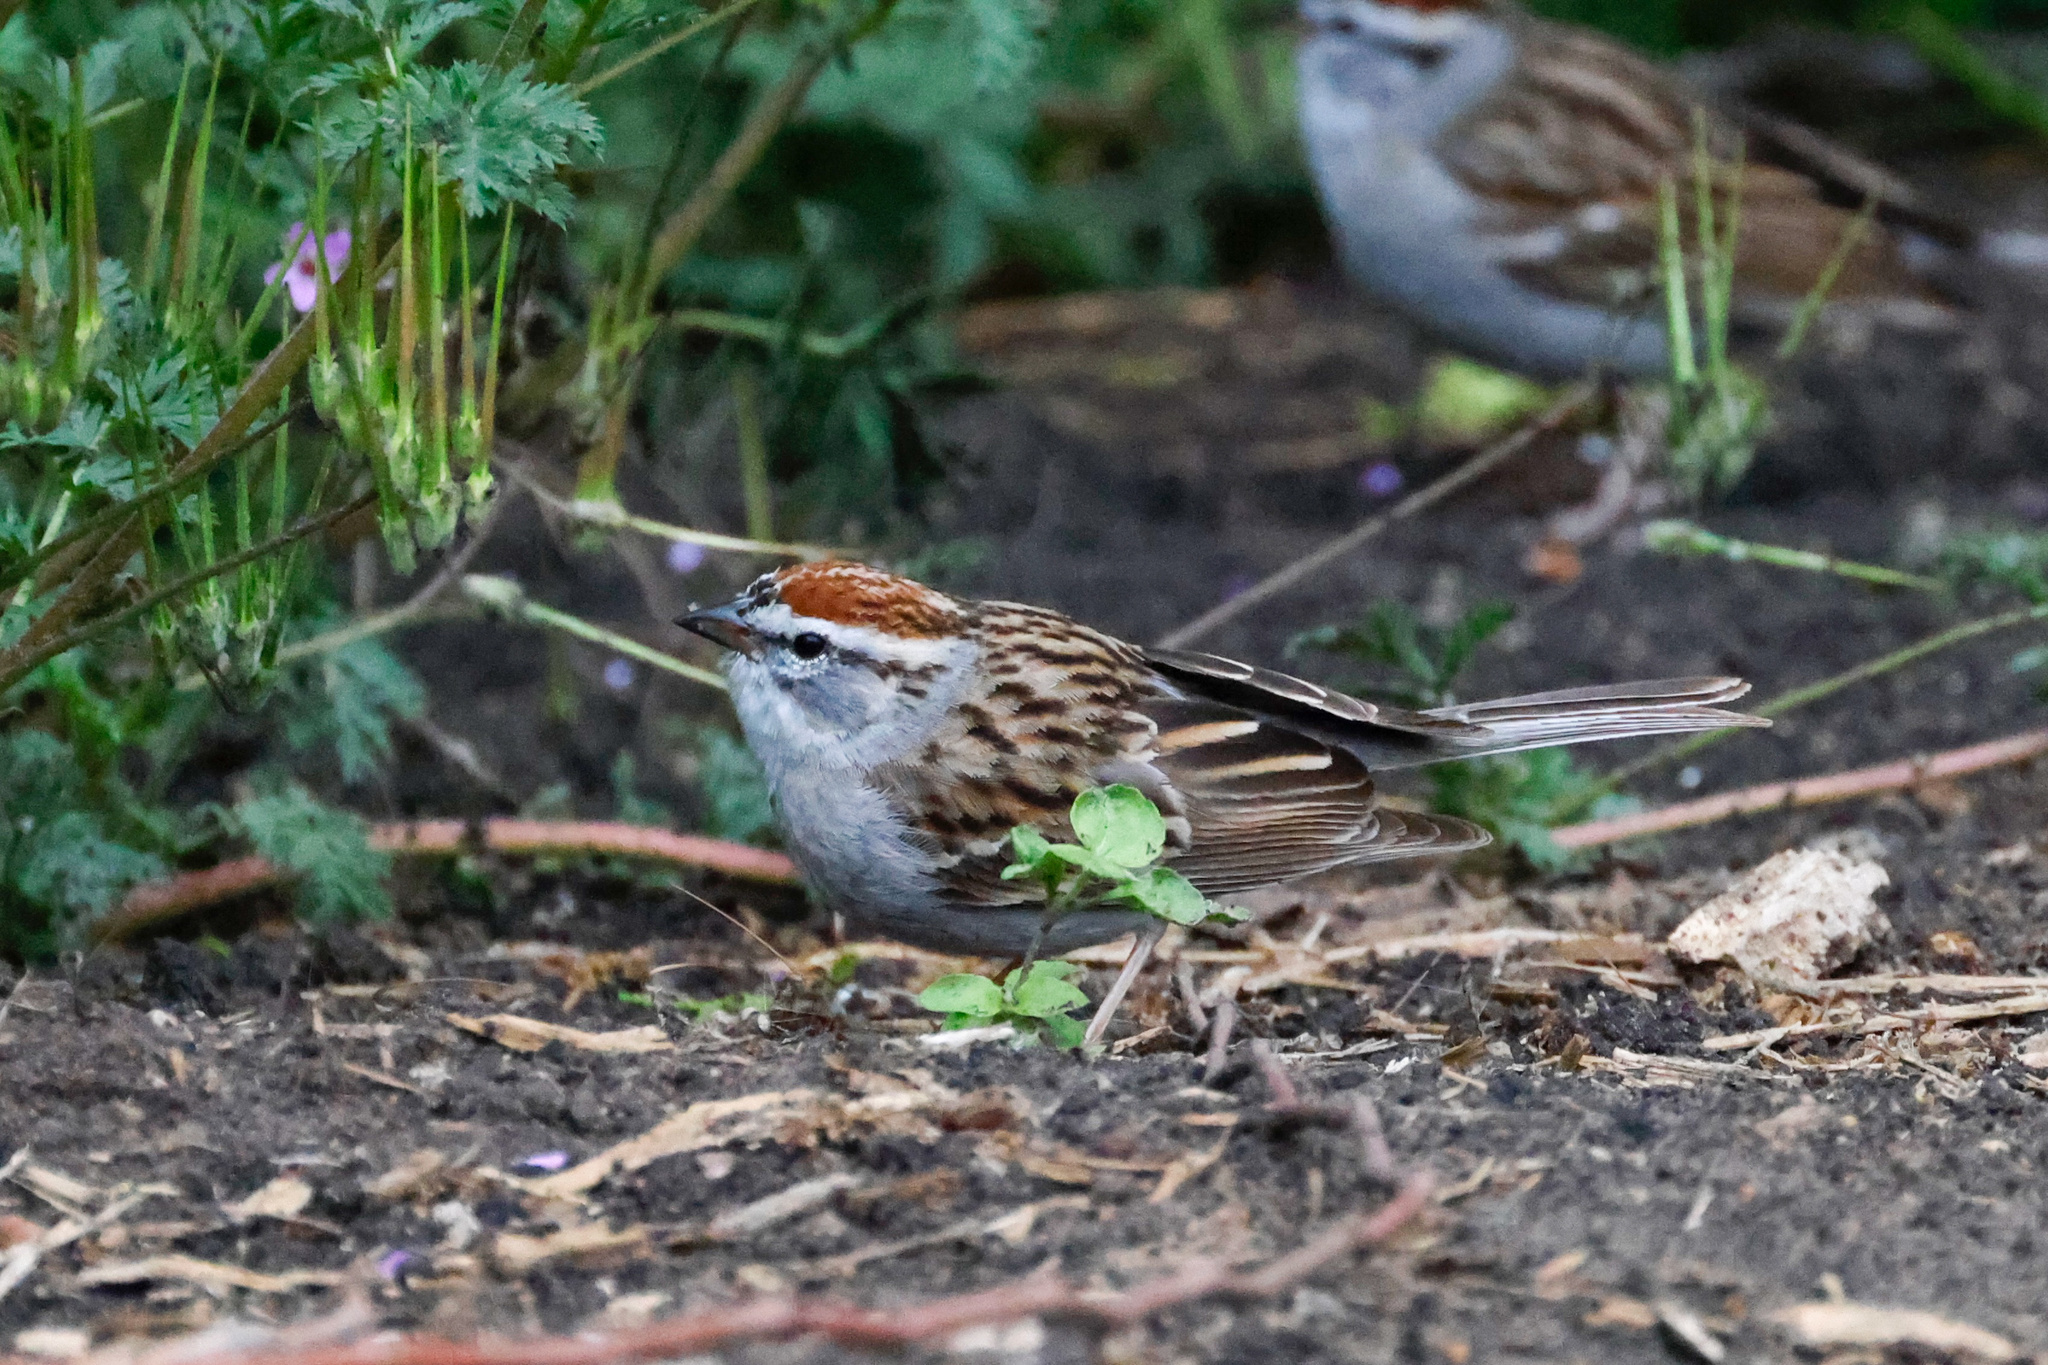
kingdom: Animalia
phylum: Chordata
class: Aves
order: Passeriformes
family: Passerellidae
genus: Spizella
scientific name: Spizella passerina
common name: Chipping sparrow
